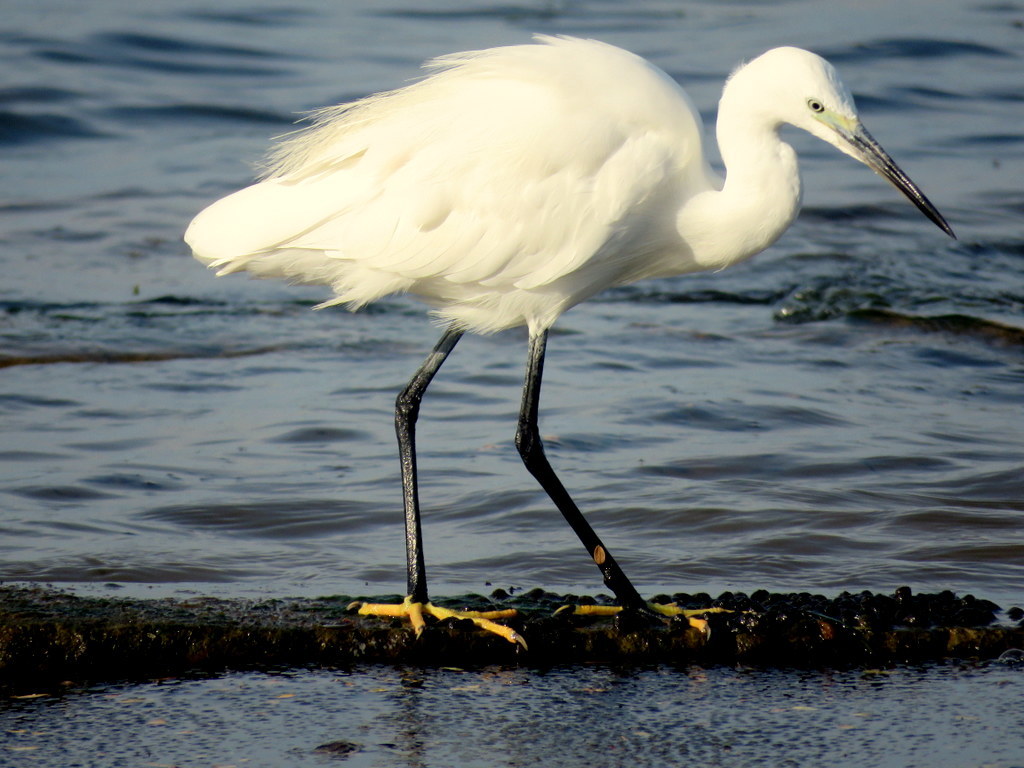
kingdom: Animalia
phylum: Chordata
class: Aves
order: Pelecaniformes
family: Ardeidae
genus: Egretta
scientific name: Egretta garzetta
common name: Little egret
